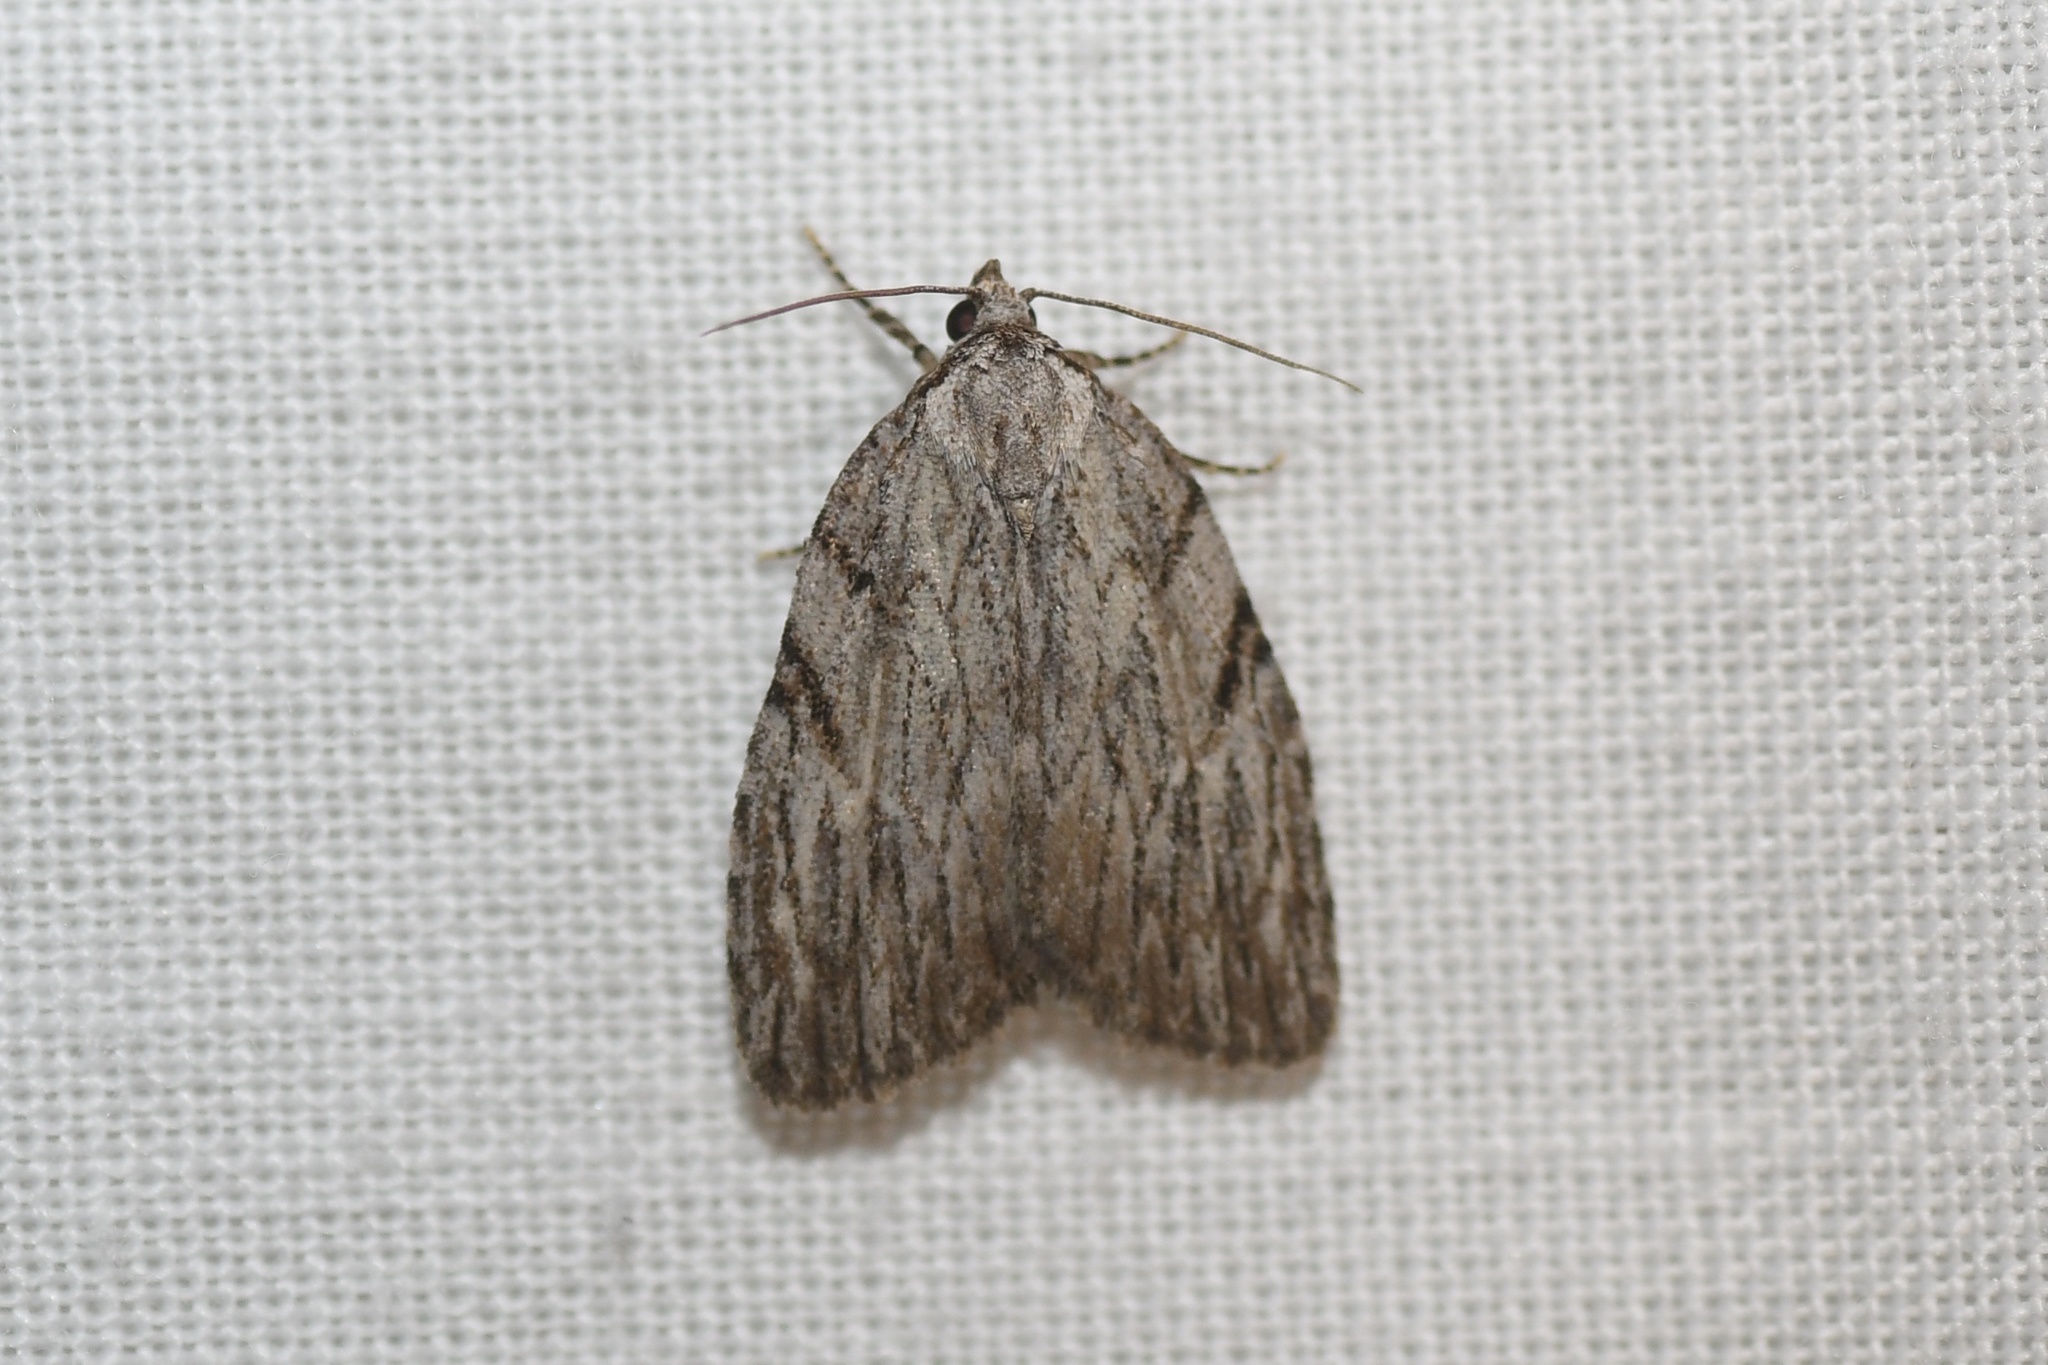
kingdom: Animalia
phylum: Arthropoda
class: Insecta
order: Lepidoptera
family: Noctuidae
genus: Balsa
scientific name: Balsa tristrigella
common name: Three-lined balsa moth
